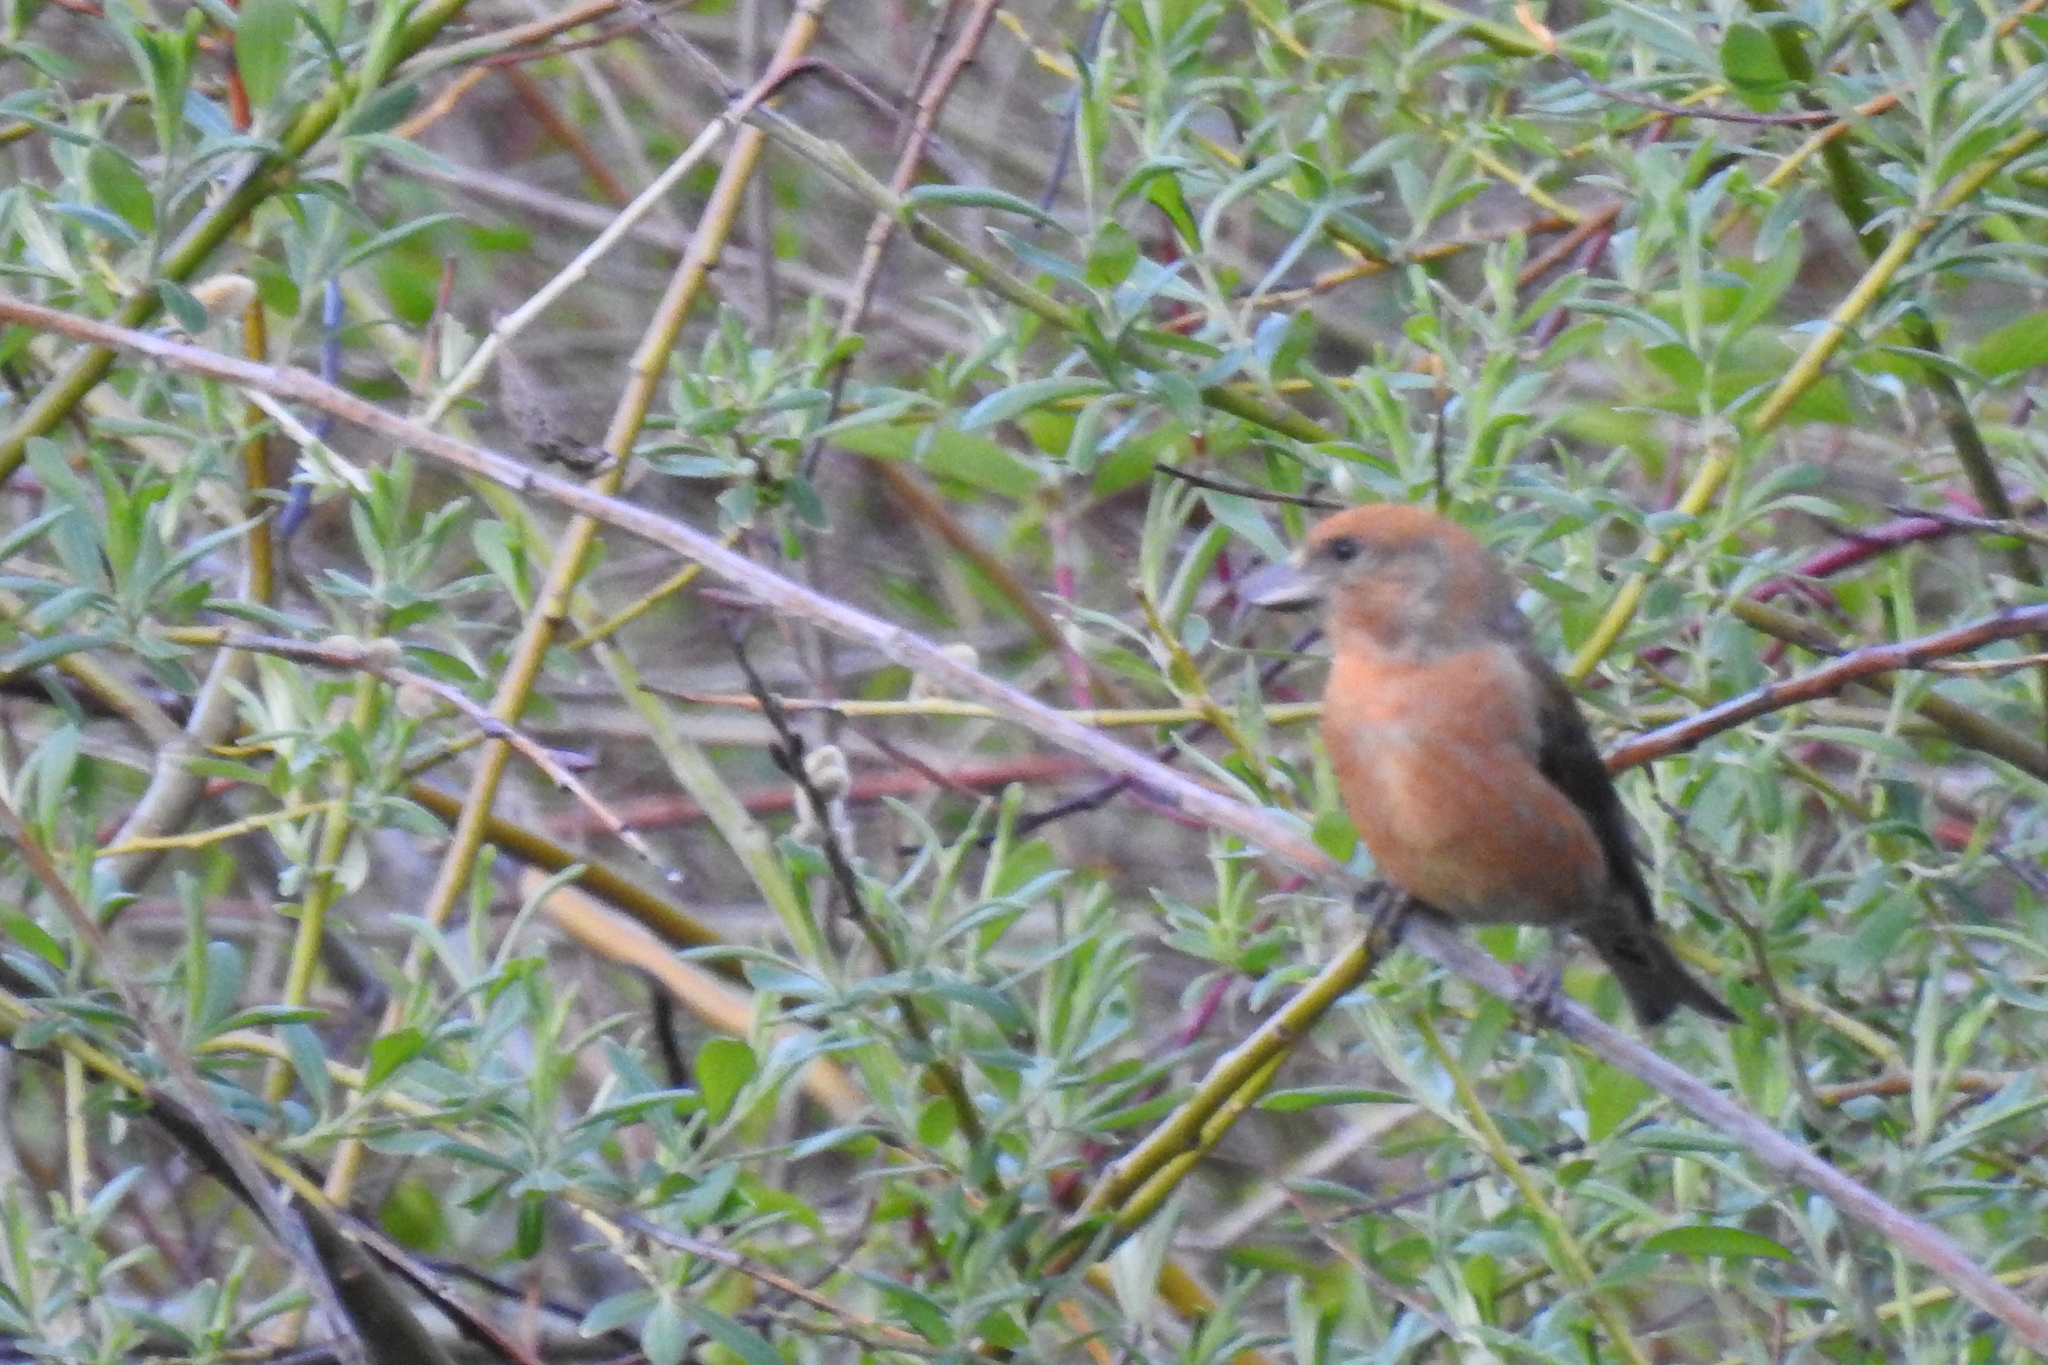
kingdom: Animalia
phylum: Chordata
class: Aves
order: Passeriformes
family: Fringillidae
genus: Loxia
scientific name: Loxia curvirostra
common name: Red crossbill
